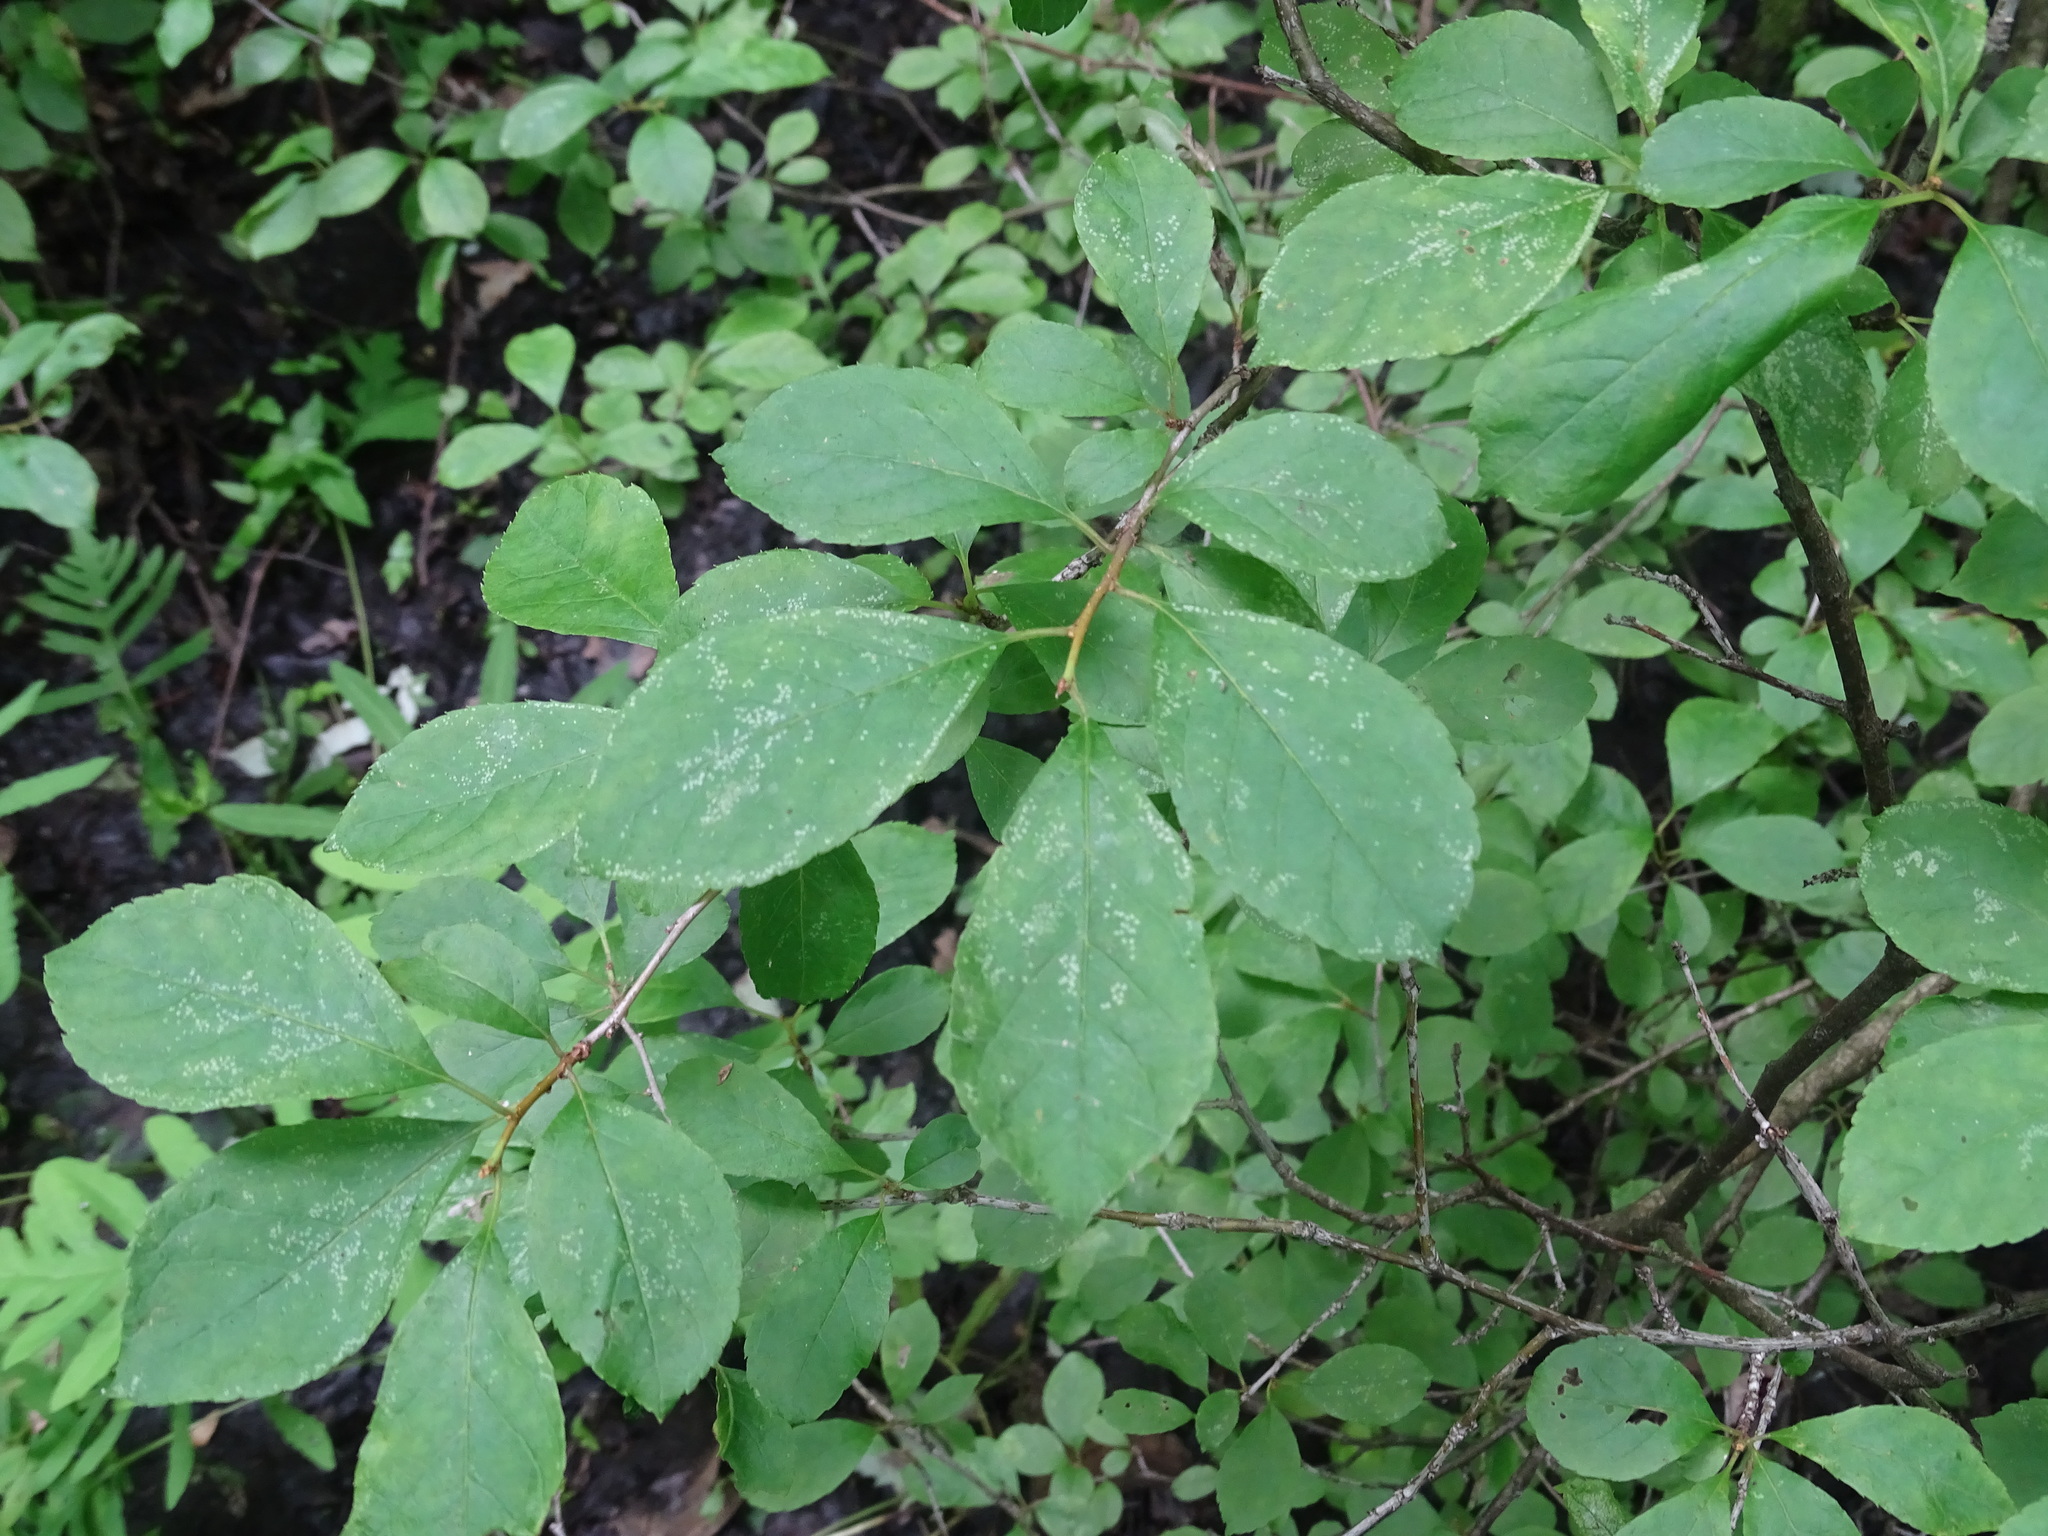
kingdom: Plantae
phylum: Tracheophyta
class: Magnoliopsida
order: Aquifoliales
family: Aquifoliaceae
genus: Ilex
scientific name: Ilex verticillata
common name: Virginia winterberry
